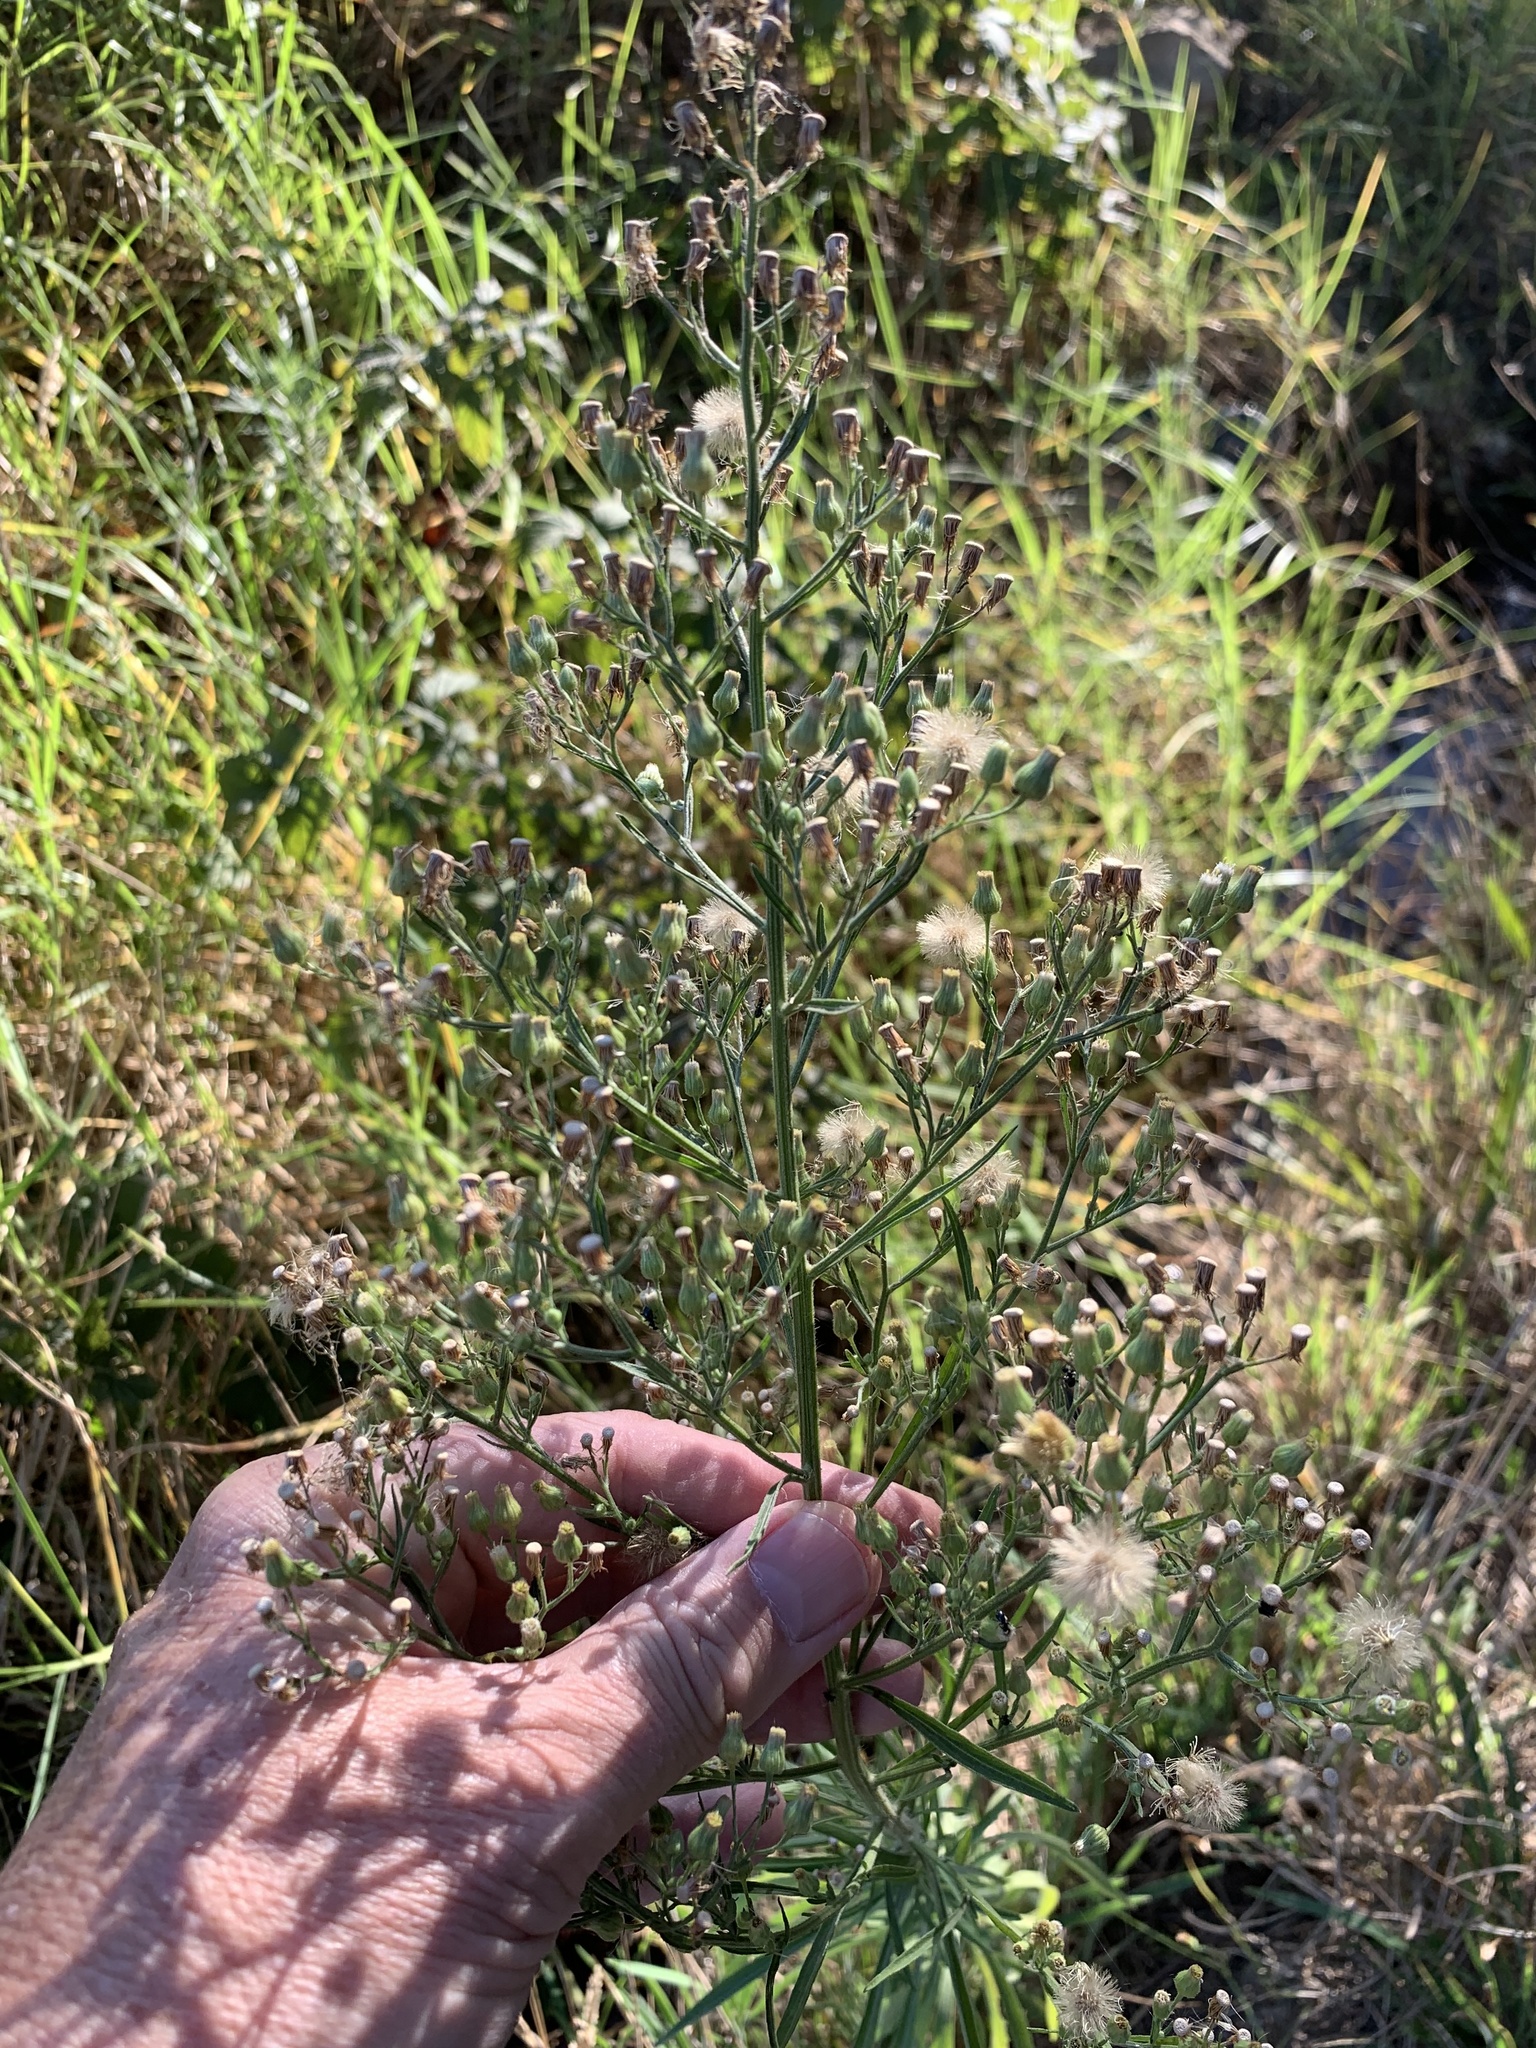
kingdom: Plantae
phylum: Tracheophyta
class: Magnoliopsida
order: Asterales
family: Asteraceae
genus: Erigeron
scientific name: Erigeron sumatrensis
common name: Daisy
